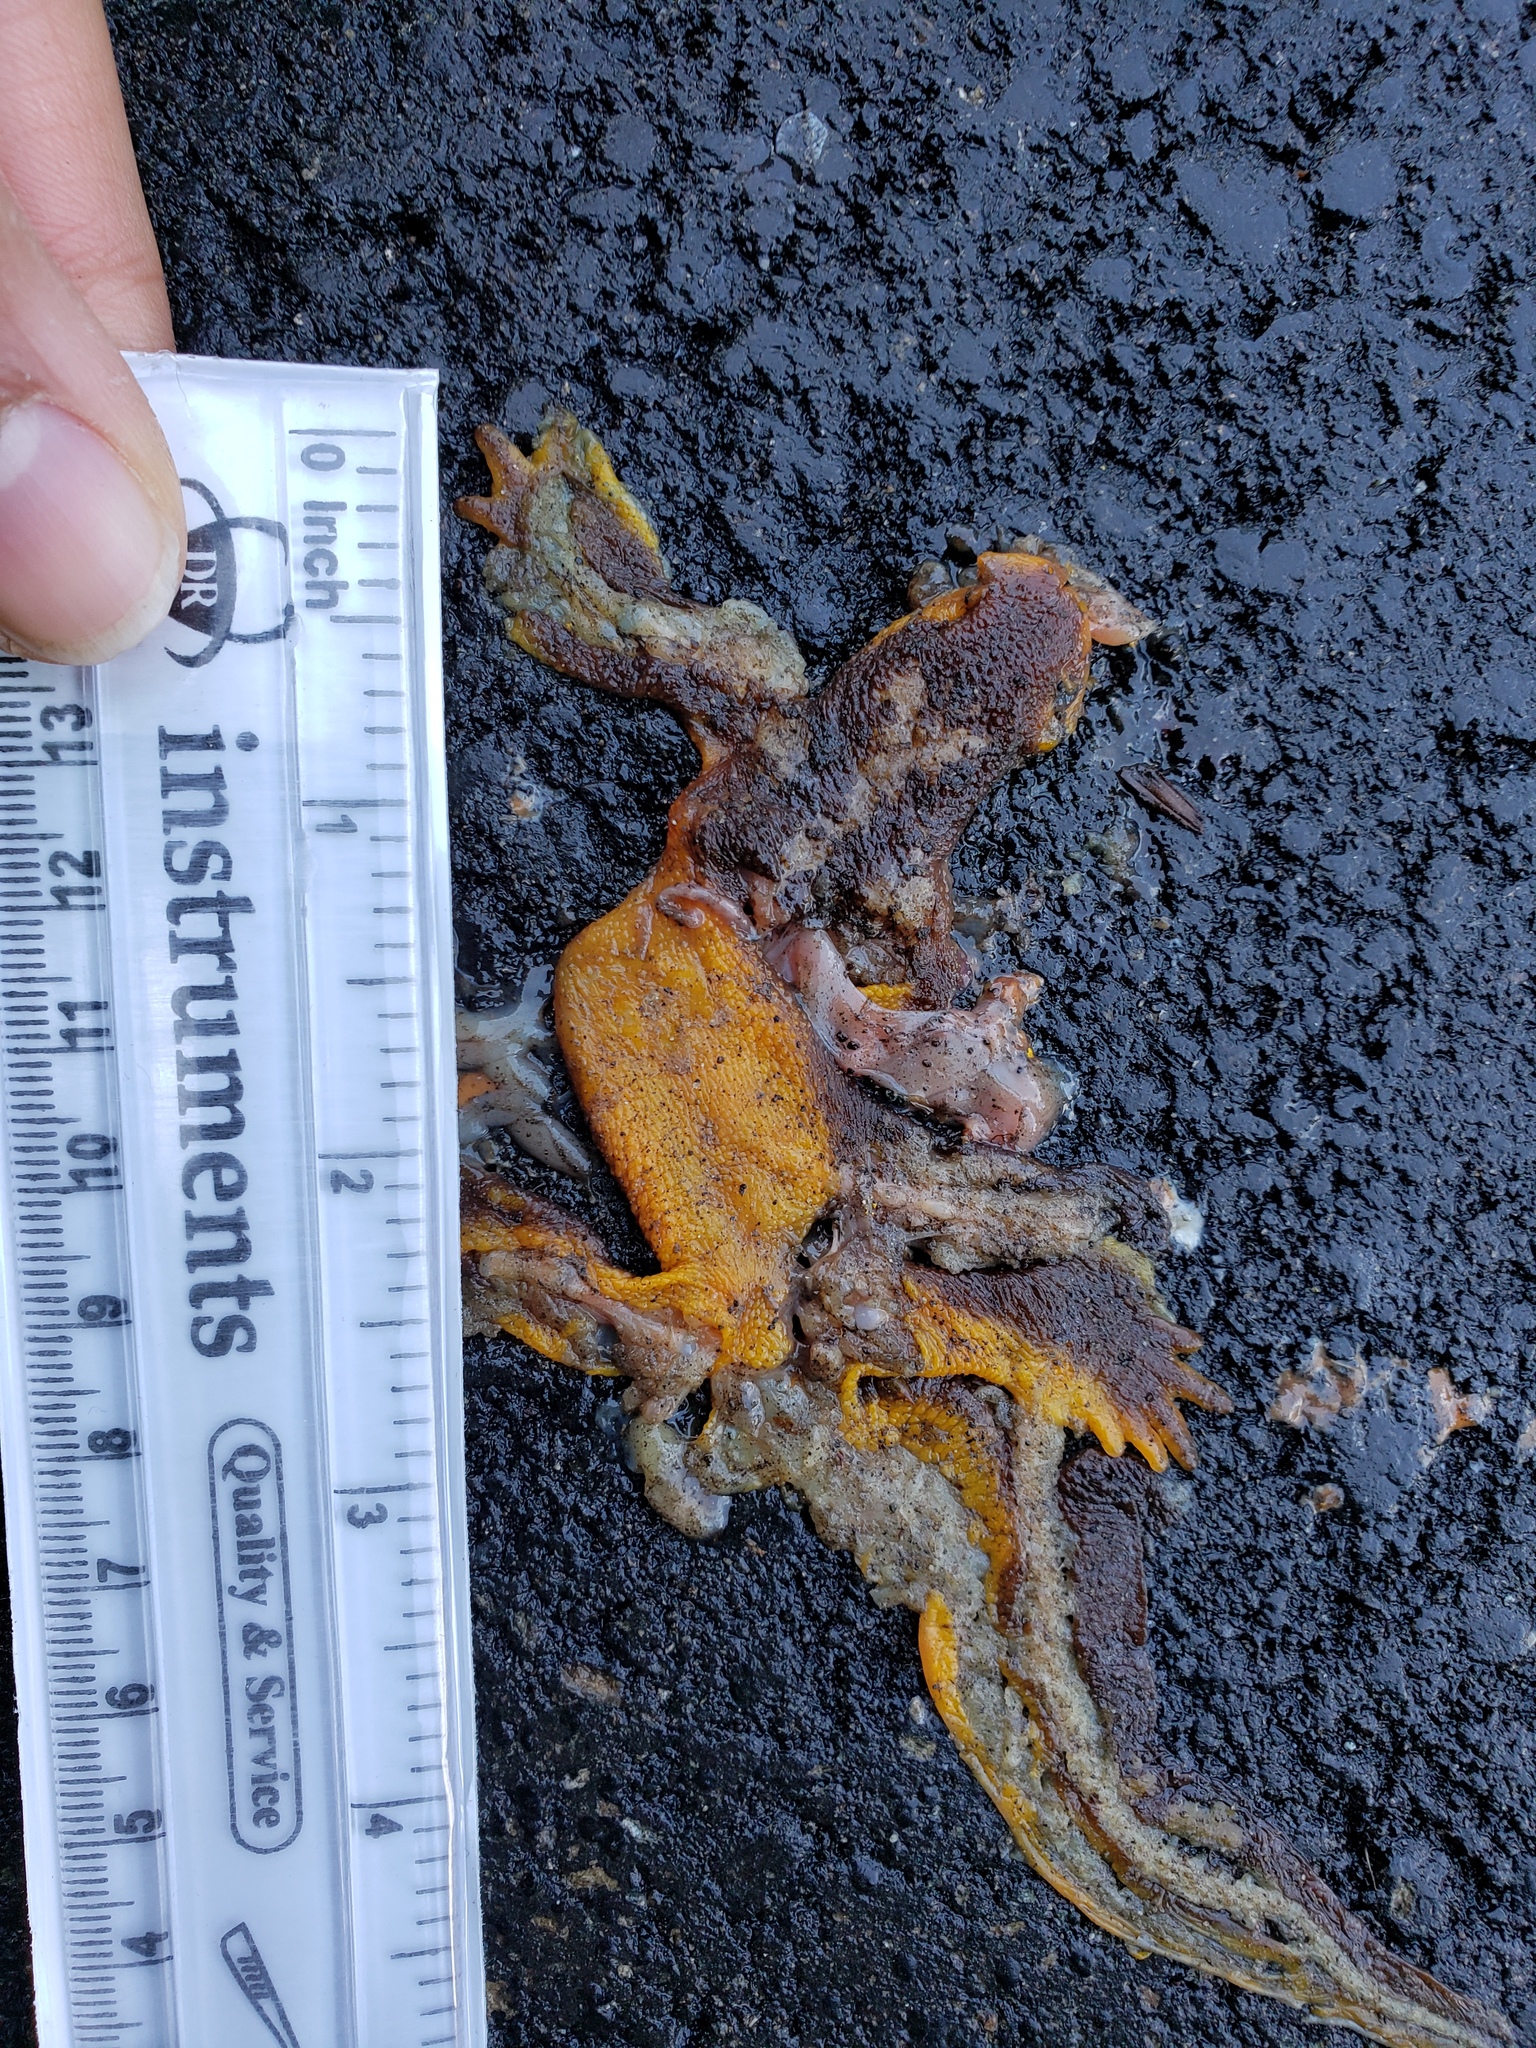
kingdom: Animalia
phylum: Chordata
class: Amphibia
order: Caudata
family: Salamandridae
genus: Taricha
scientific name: Taricha
